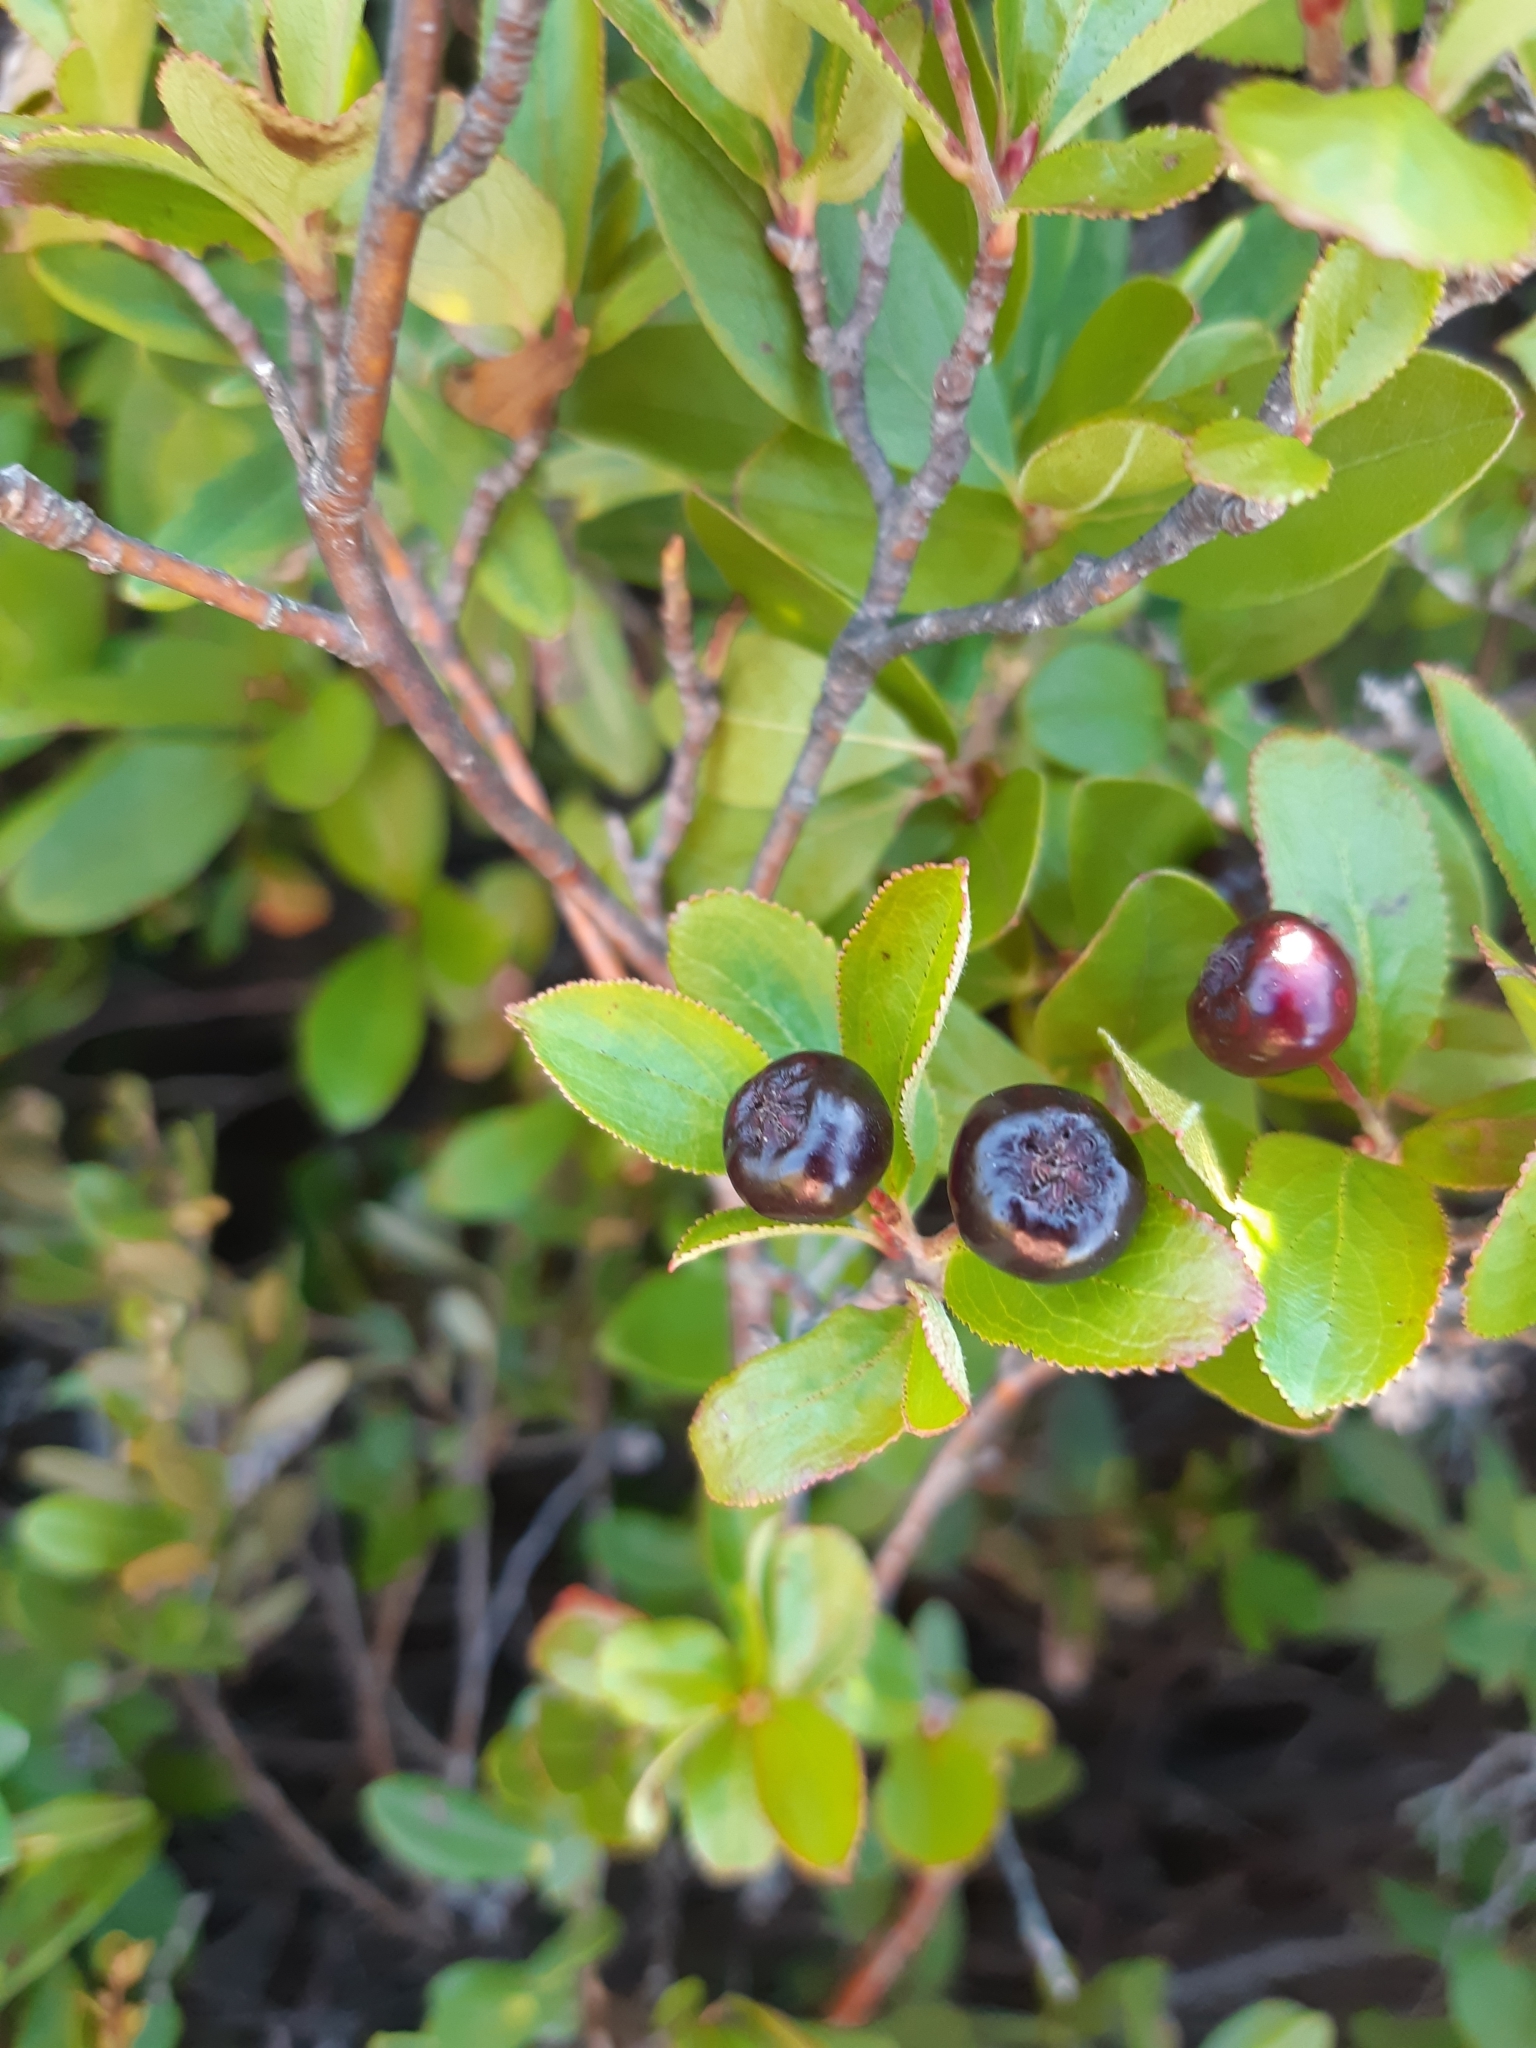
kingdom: Plantae
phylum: Tracheophyta
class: Magnoliopsida
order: Rosales
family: Rosaceae
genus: Aronia
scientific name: Aronia melanocarpa
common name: Black chokeberry
